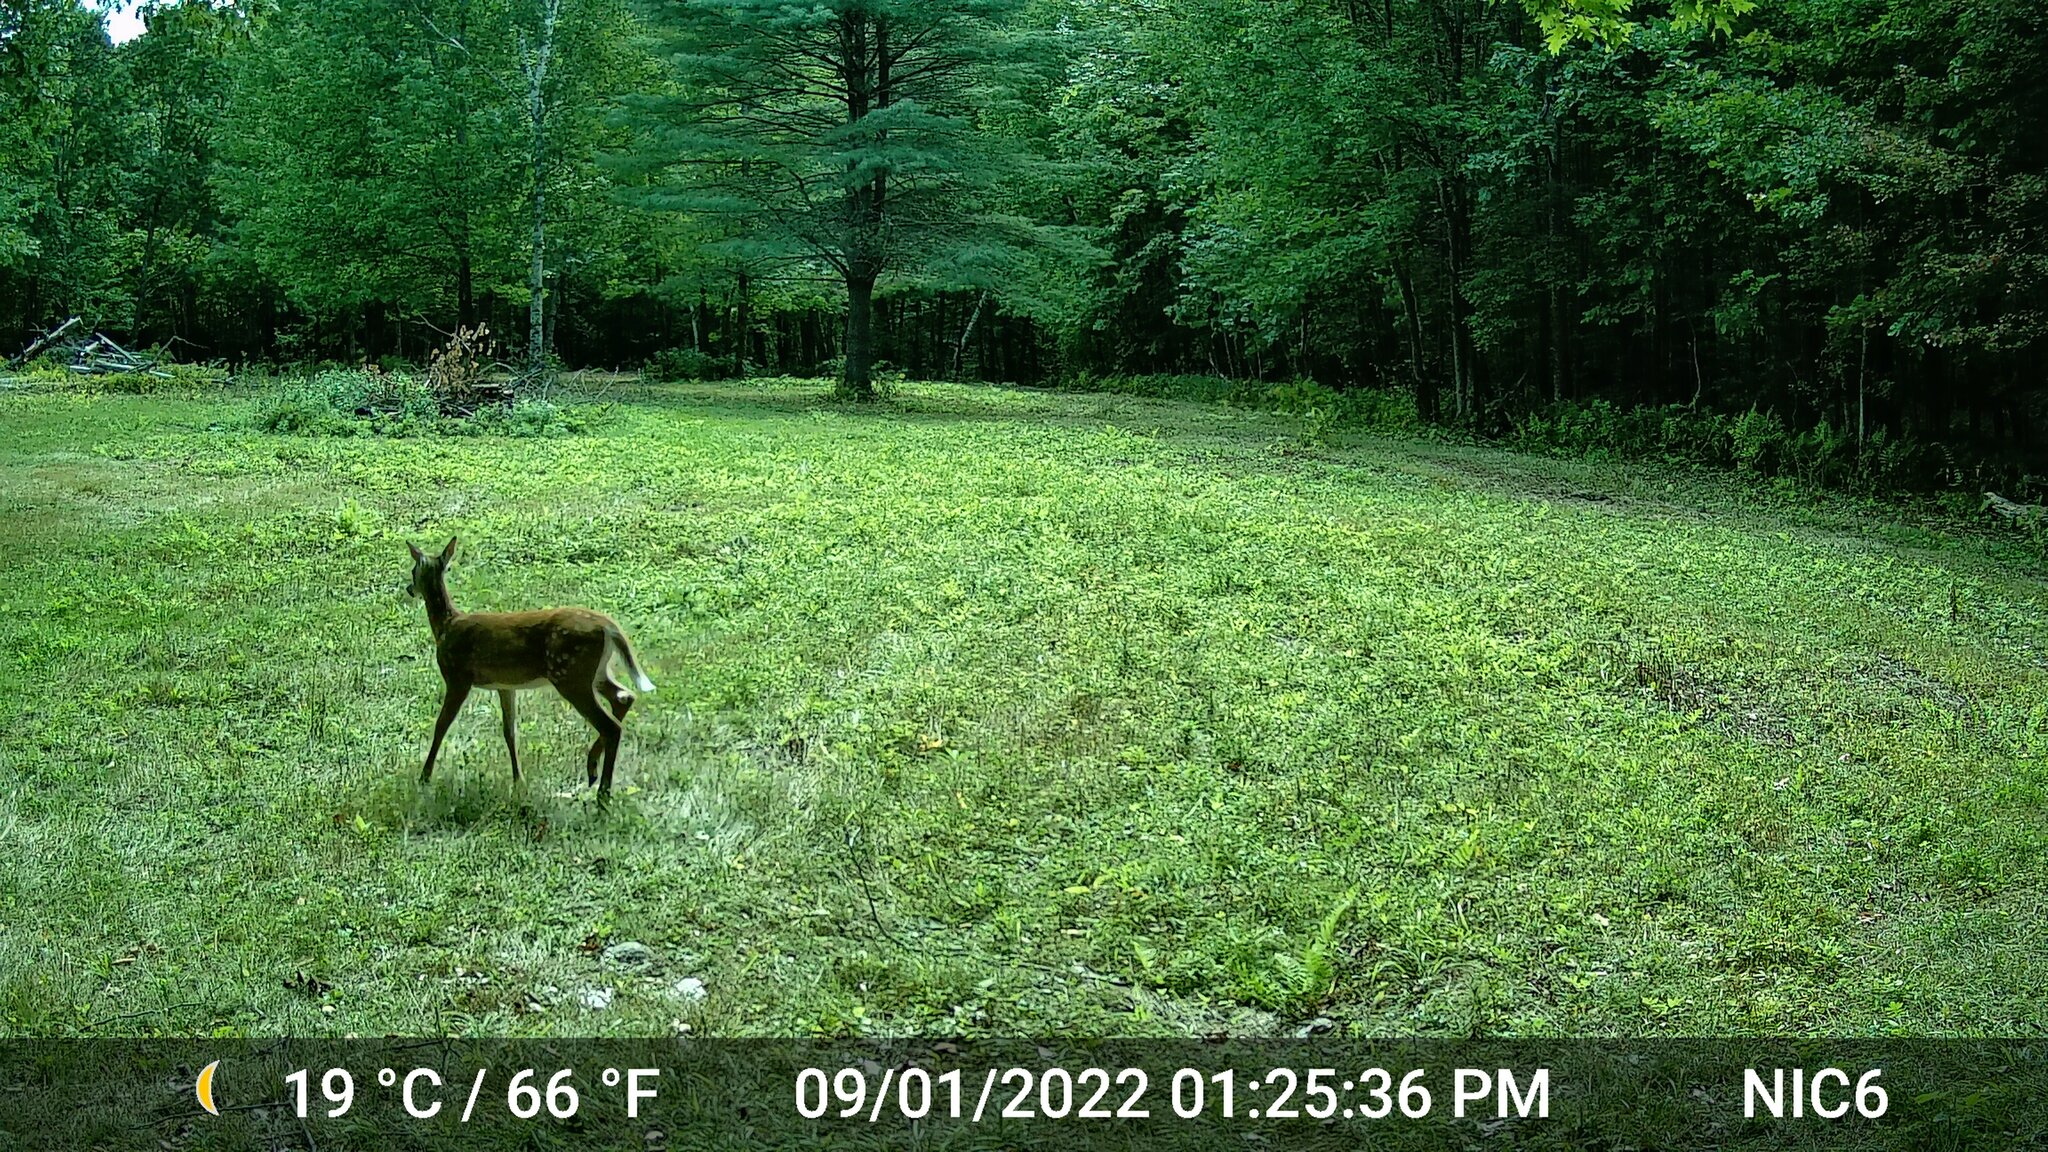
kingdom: Animalia
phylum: Chordata
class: Mammalia
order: Artiodactyla
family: Cervidae
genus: Odocoileus
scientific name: Odocoileus virginianus
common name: White-tailed deer
